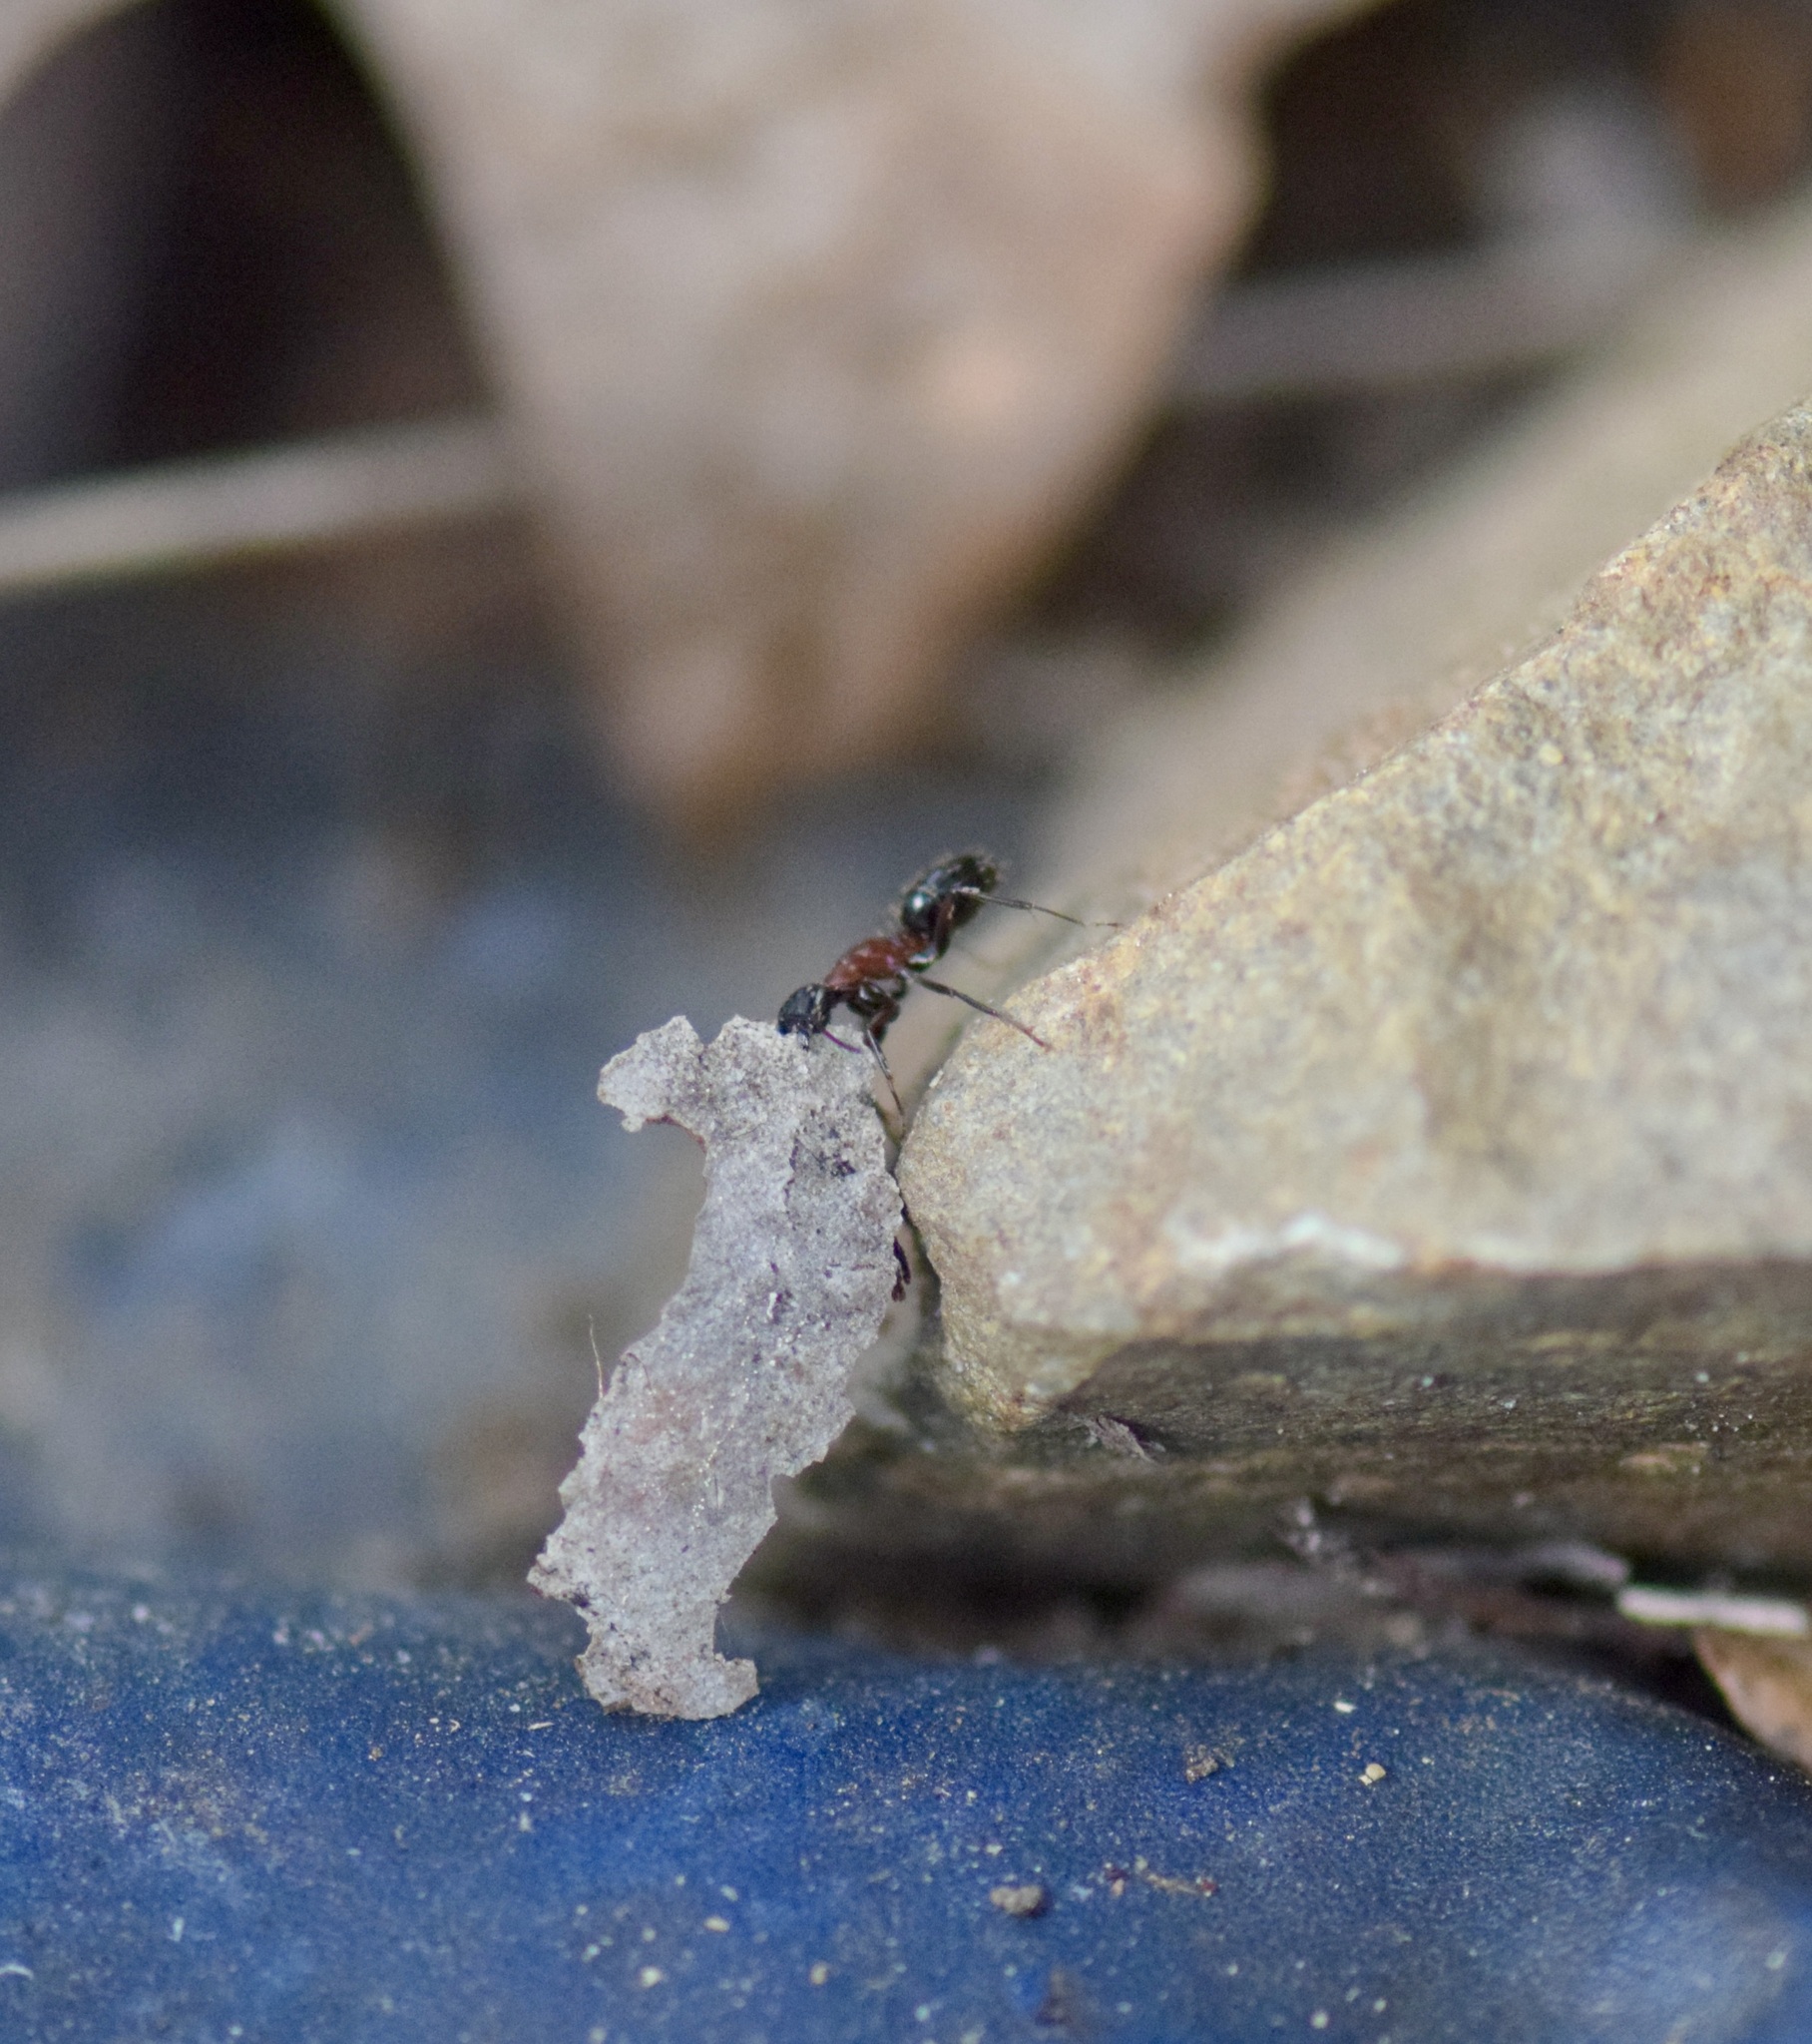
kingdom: Animalia
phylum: Arthropoda
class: Insecta
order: Hymenoptera
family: Formicidae
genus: Camponotus
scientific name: Camponotus novaeboracensis
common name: New york carpenter ant
